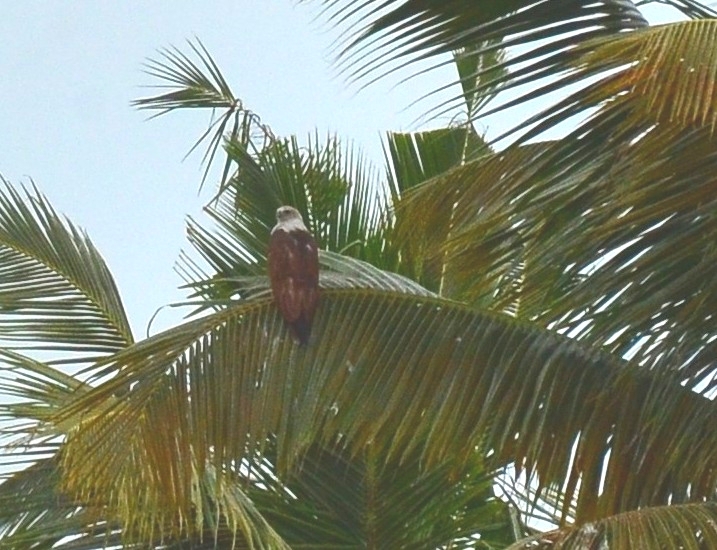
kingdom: Animalia
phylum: Chordata
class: Aves
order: Accipitriformes
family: Accipitridae
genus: Haliastur
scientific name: Haliastur indus
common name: Brahminy kite
